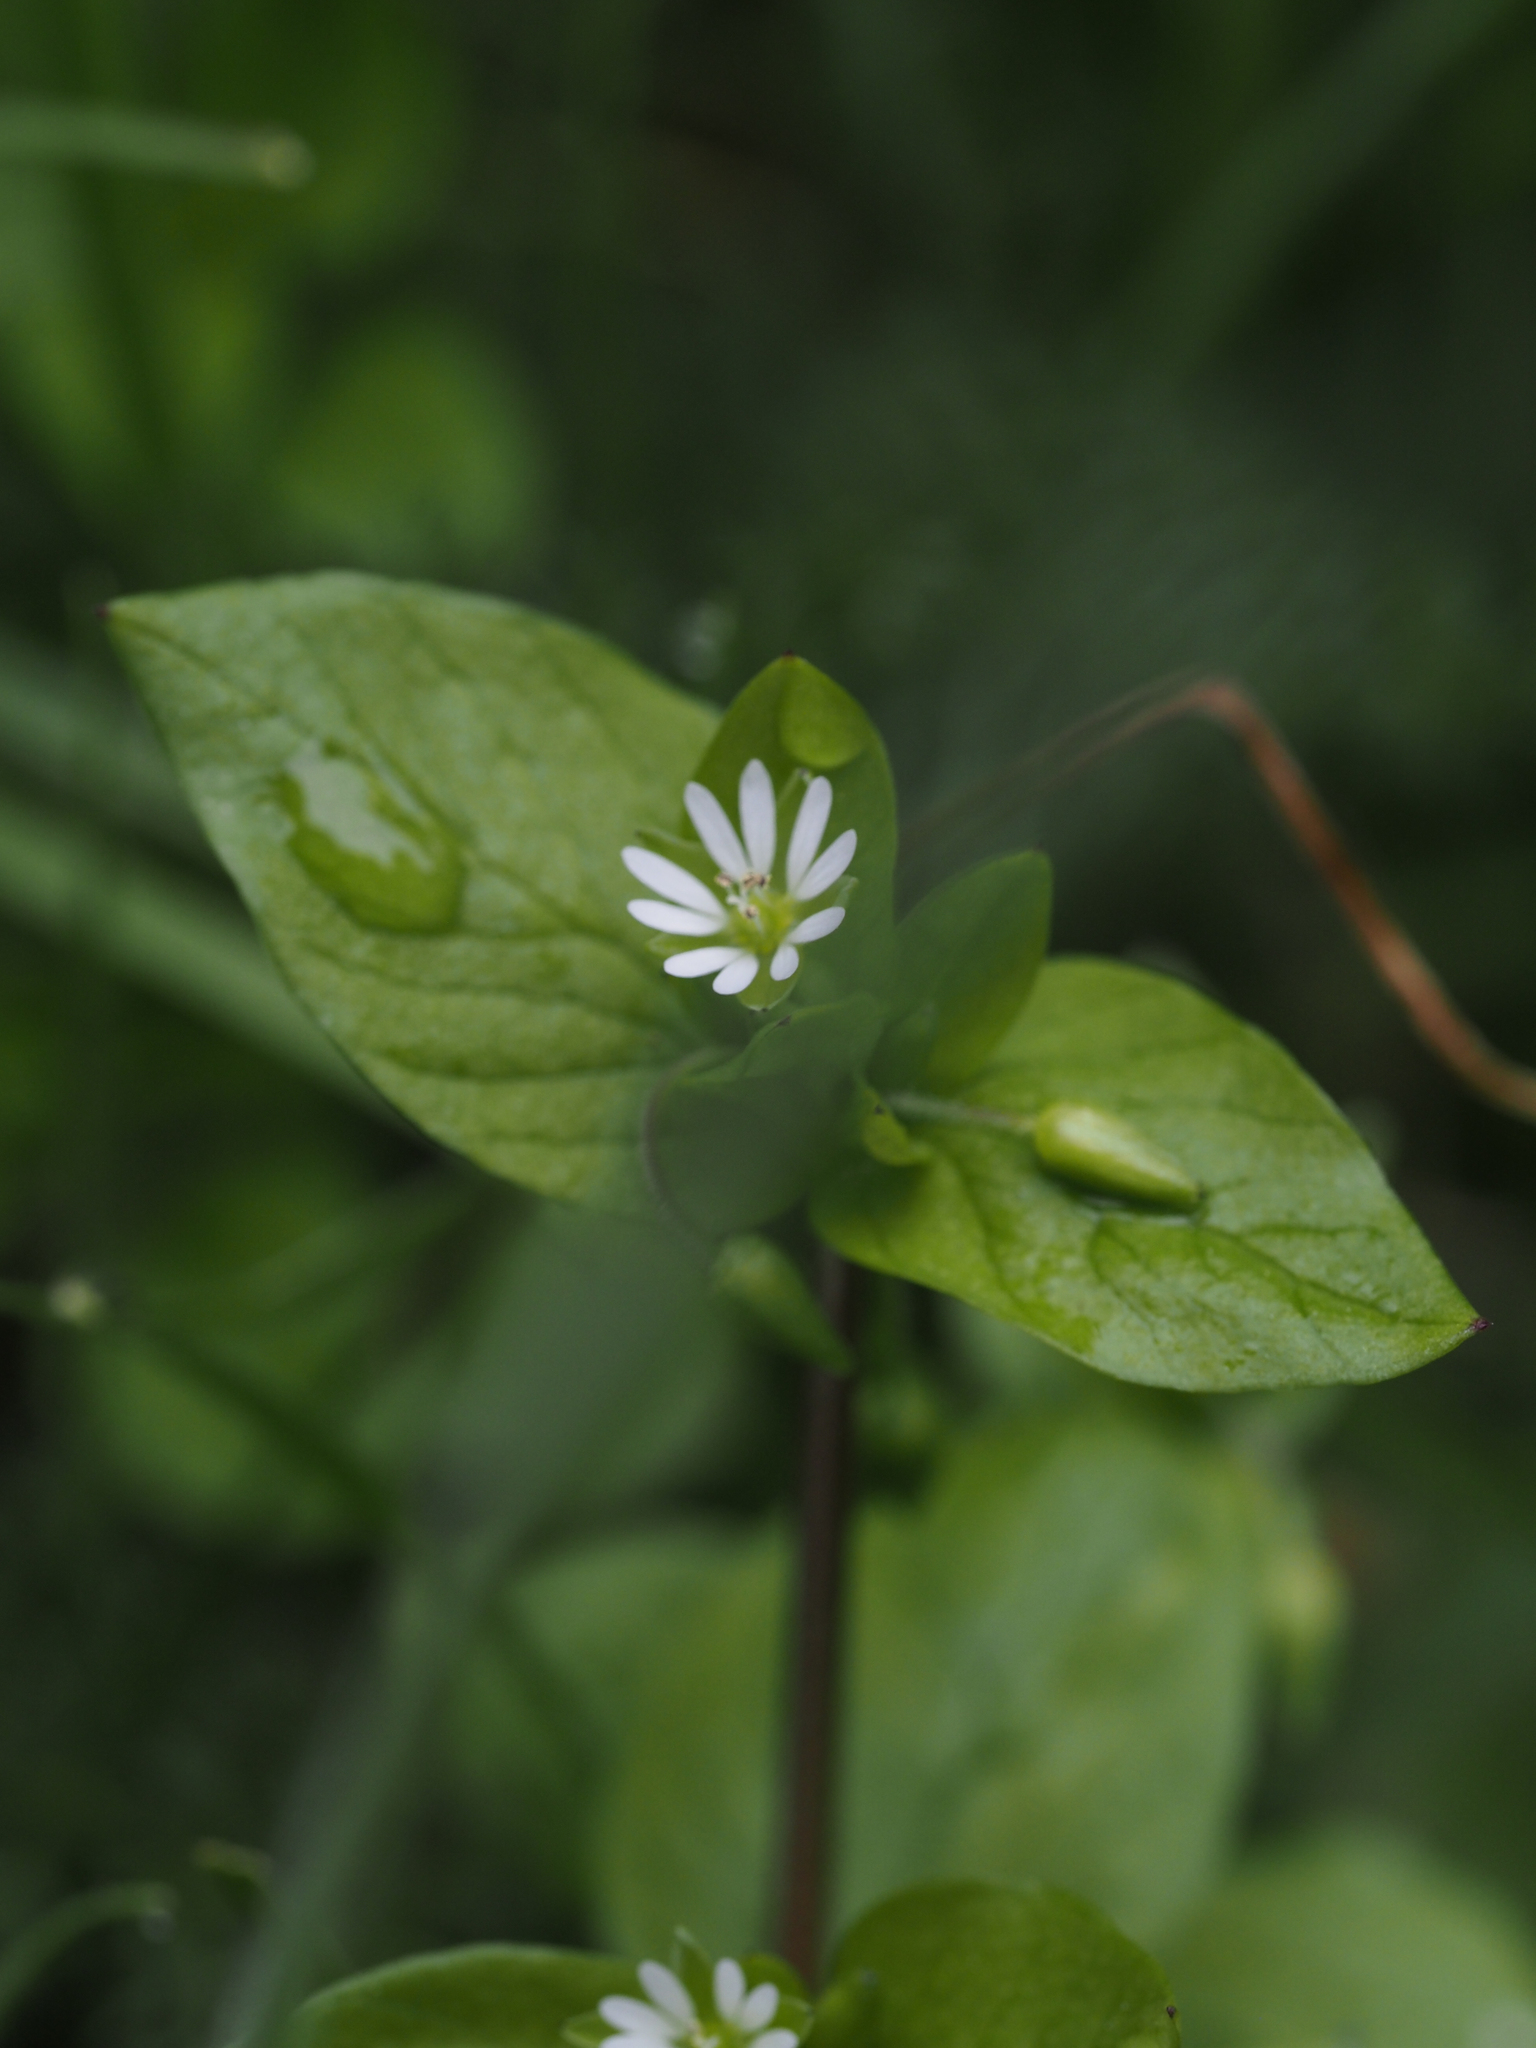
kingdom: Plantae
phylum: Tracheophyta
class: Magnoliopsida
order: Caryophyllales
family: Caryophyllaceae
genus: Stellaria
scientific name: Stellaria media
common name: Common chickweed
